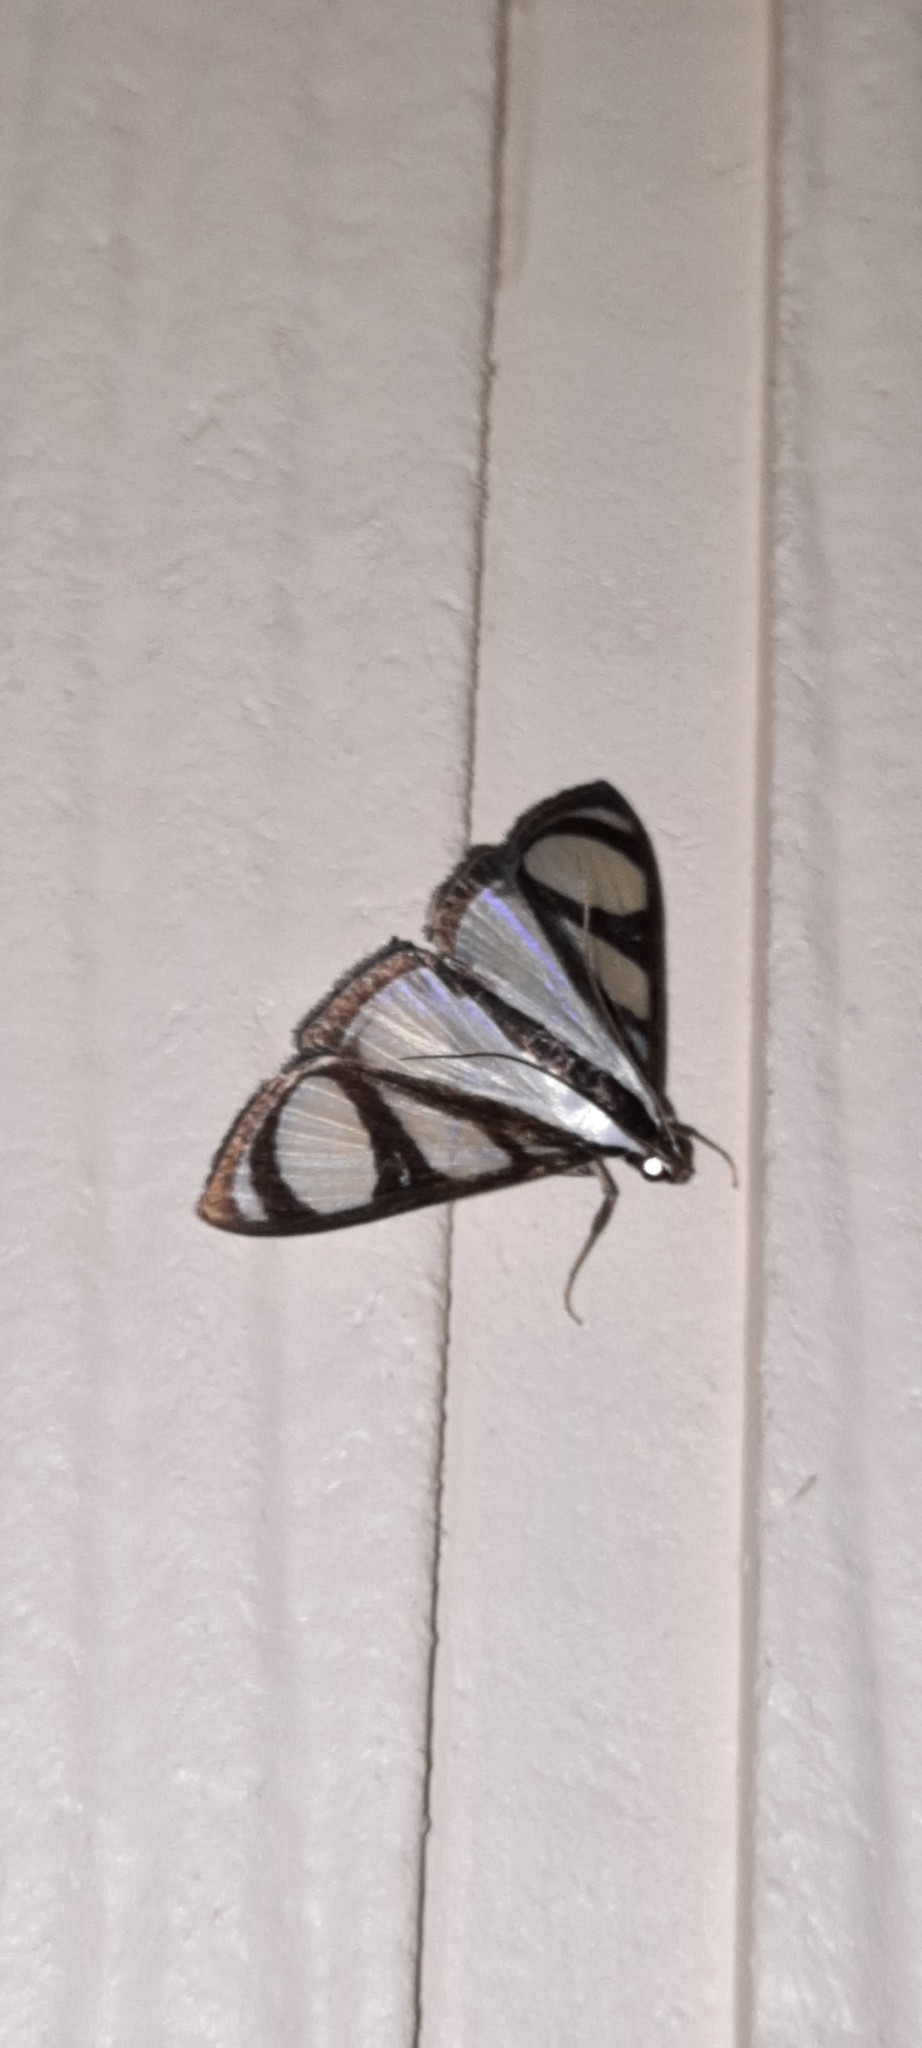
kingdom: Animalia
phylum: Arthropoda
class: Insecta
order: Lepidoptera
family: Crambidae
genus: Glyphodes
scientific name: Glyphodes confinis
